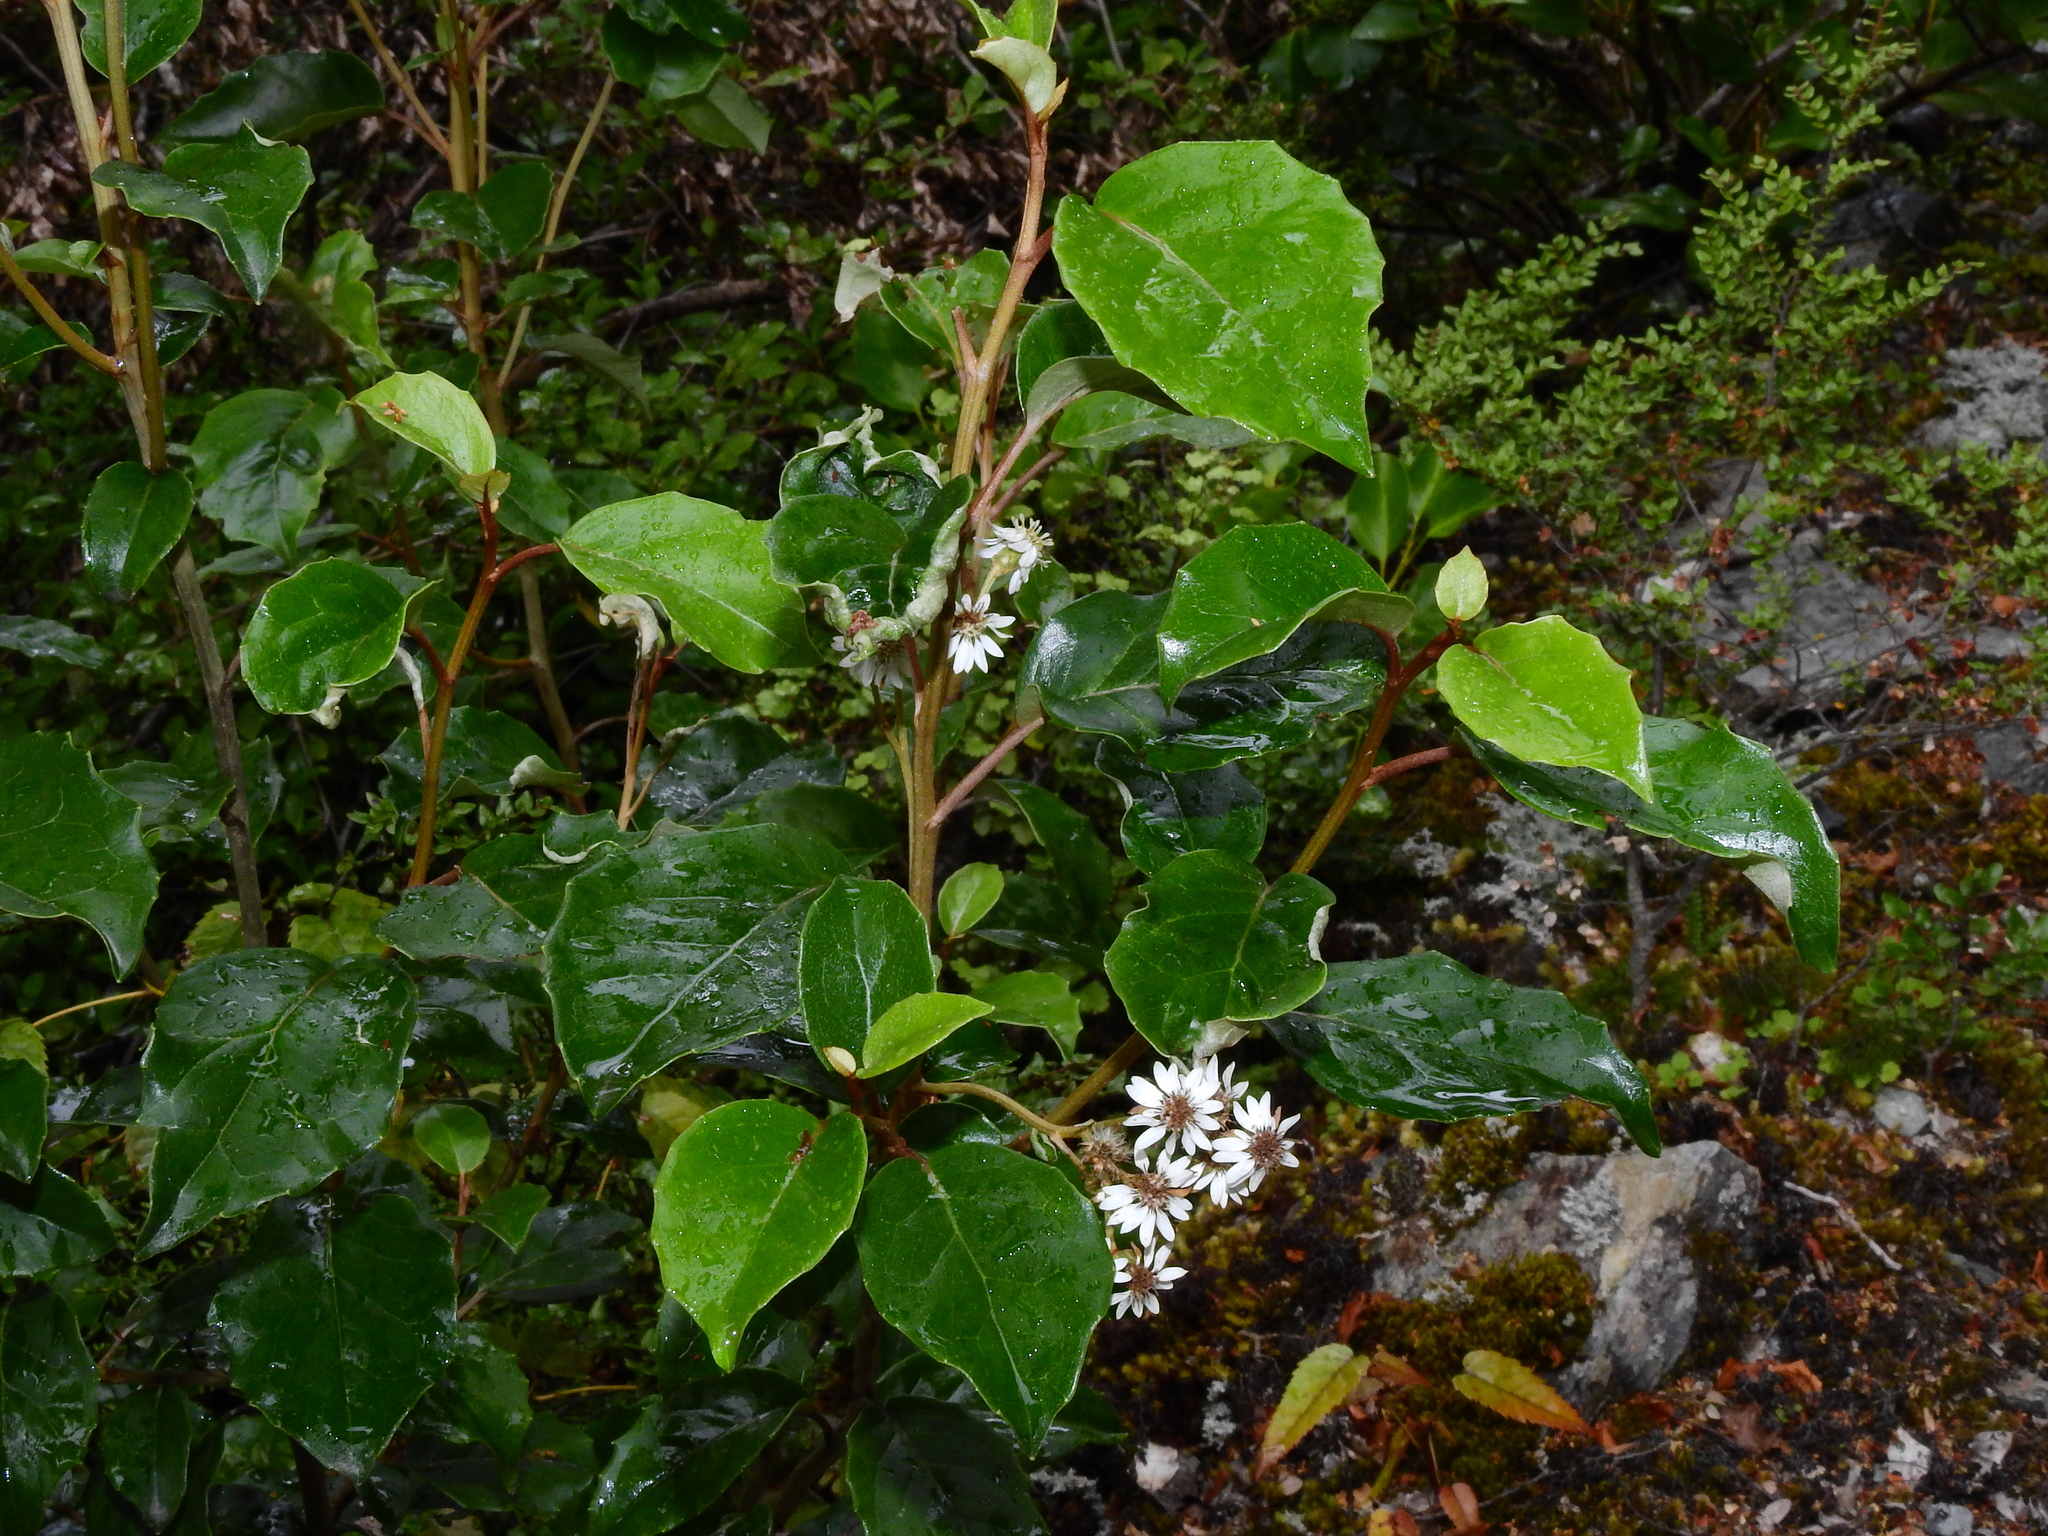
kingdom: Plantae
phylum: Tracheophyta
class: Magnoliopsida
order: Asterales
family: Asteraceae
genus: Olearia
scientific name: Olearia arborescens
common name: Glossy tree daisy
